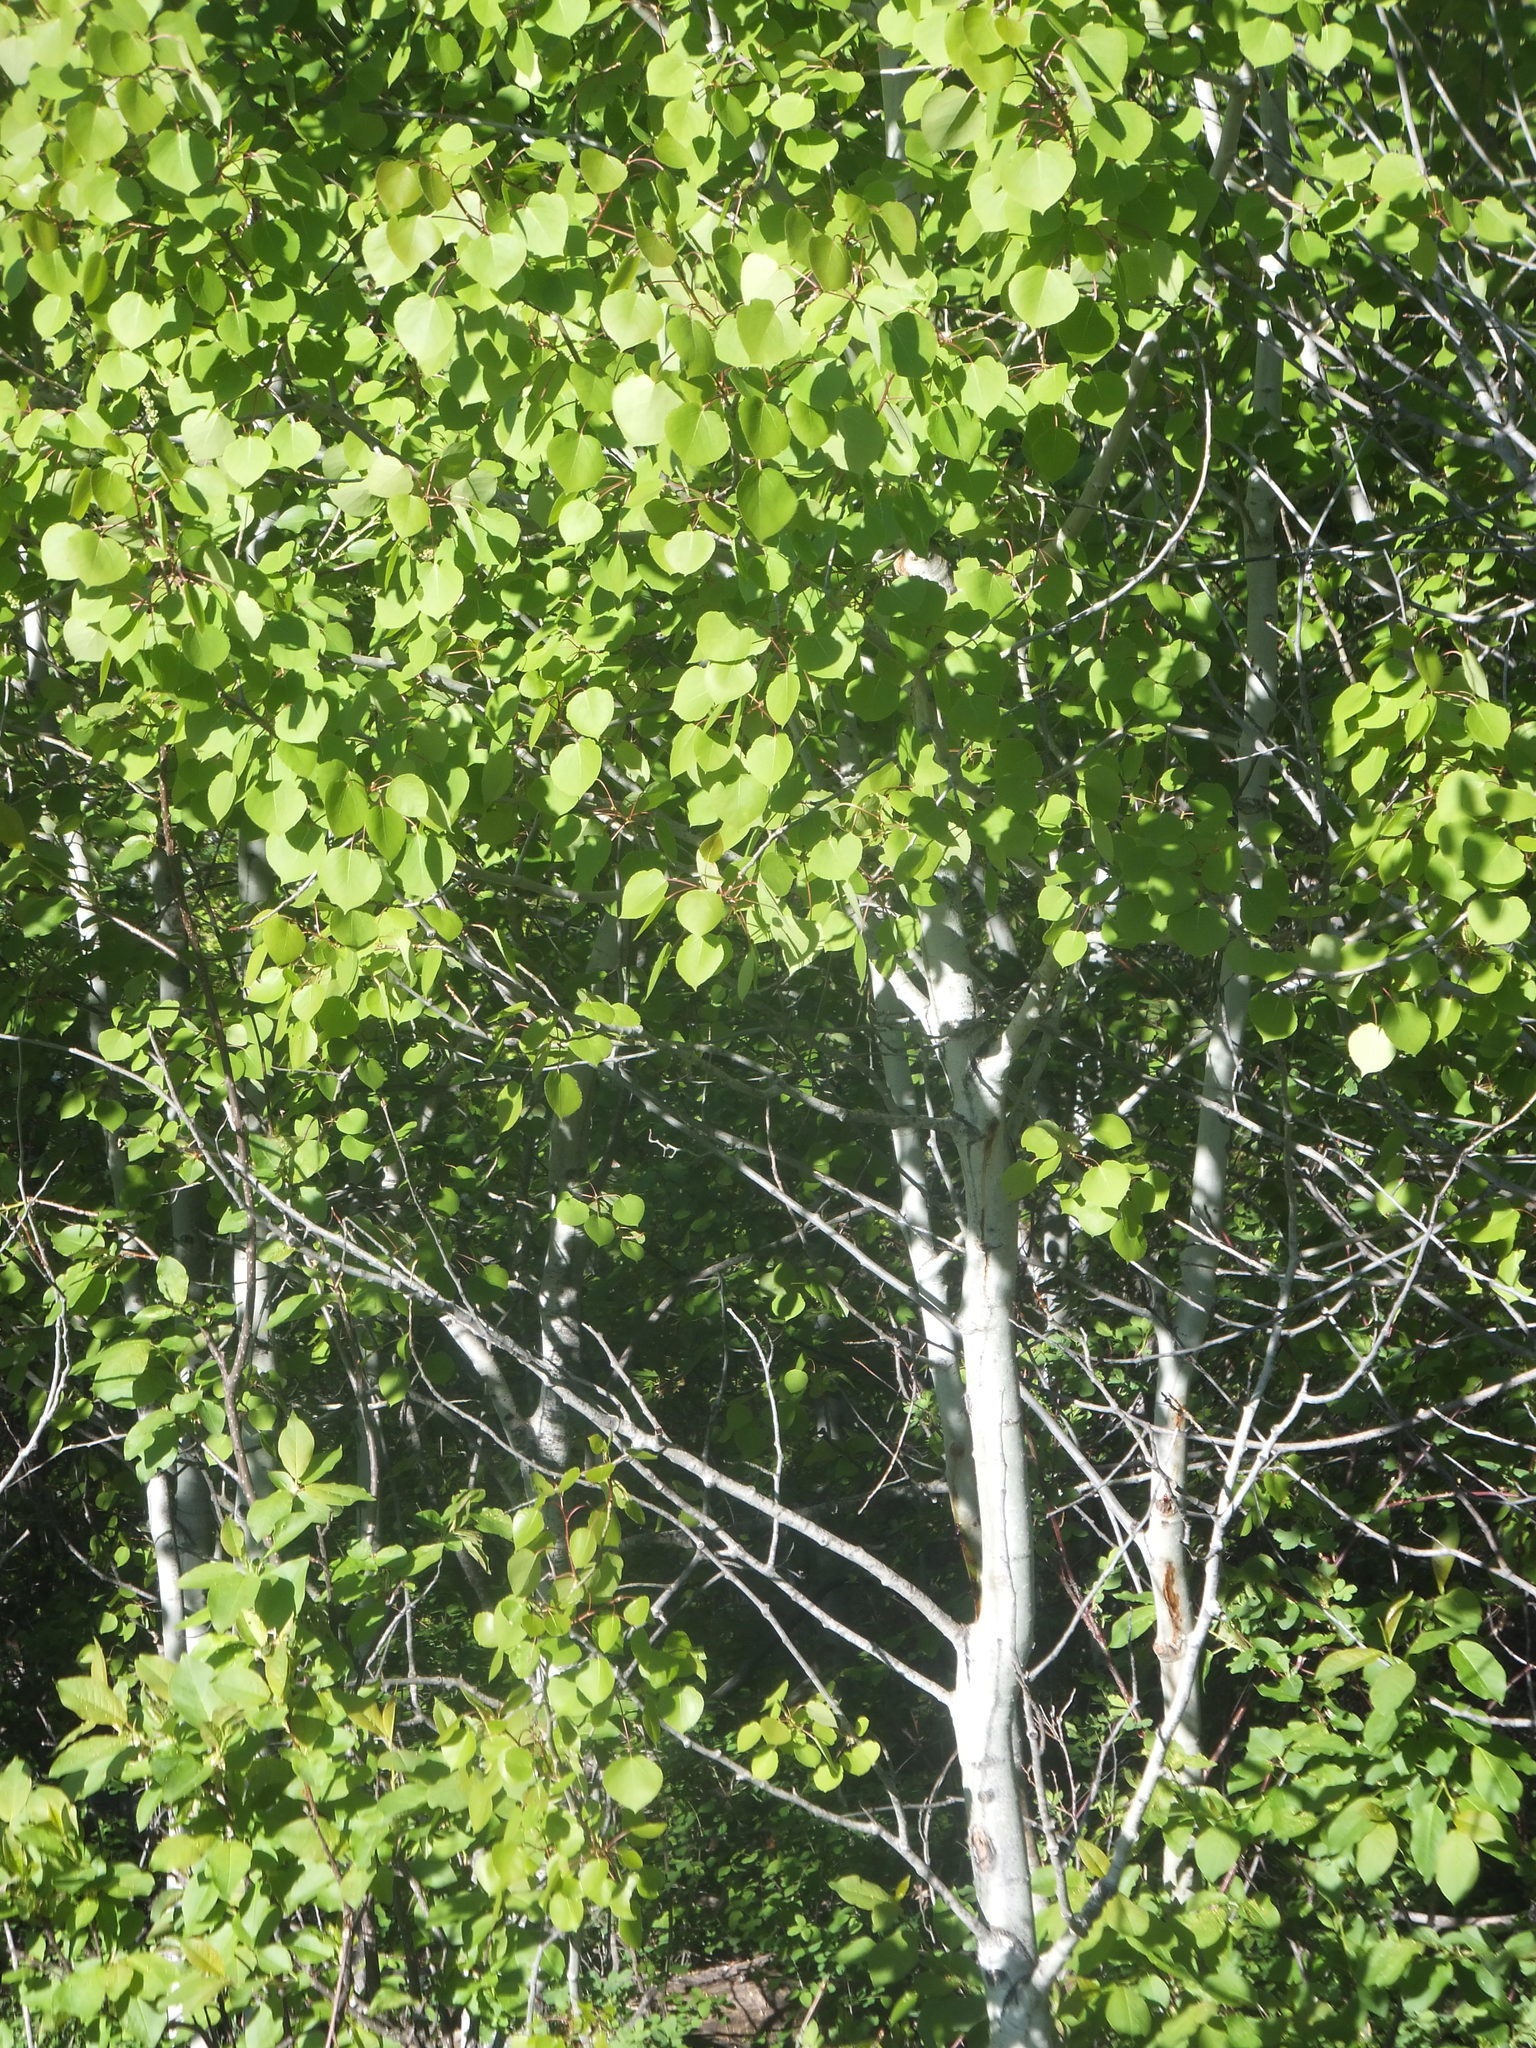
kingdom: Plantae
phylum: Tracheophyta
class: Magnoliopsida
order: Malpighiales
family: Salicaceae
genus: Populus
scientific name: Populus tremuloides
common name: Quaking aspen
